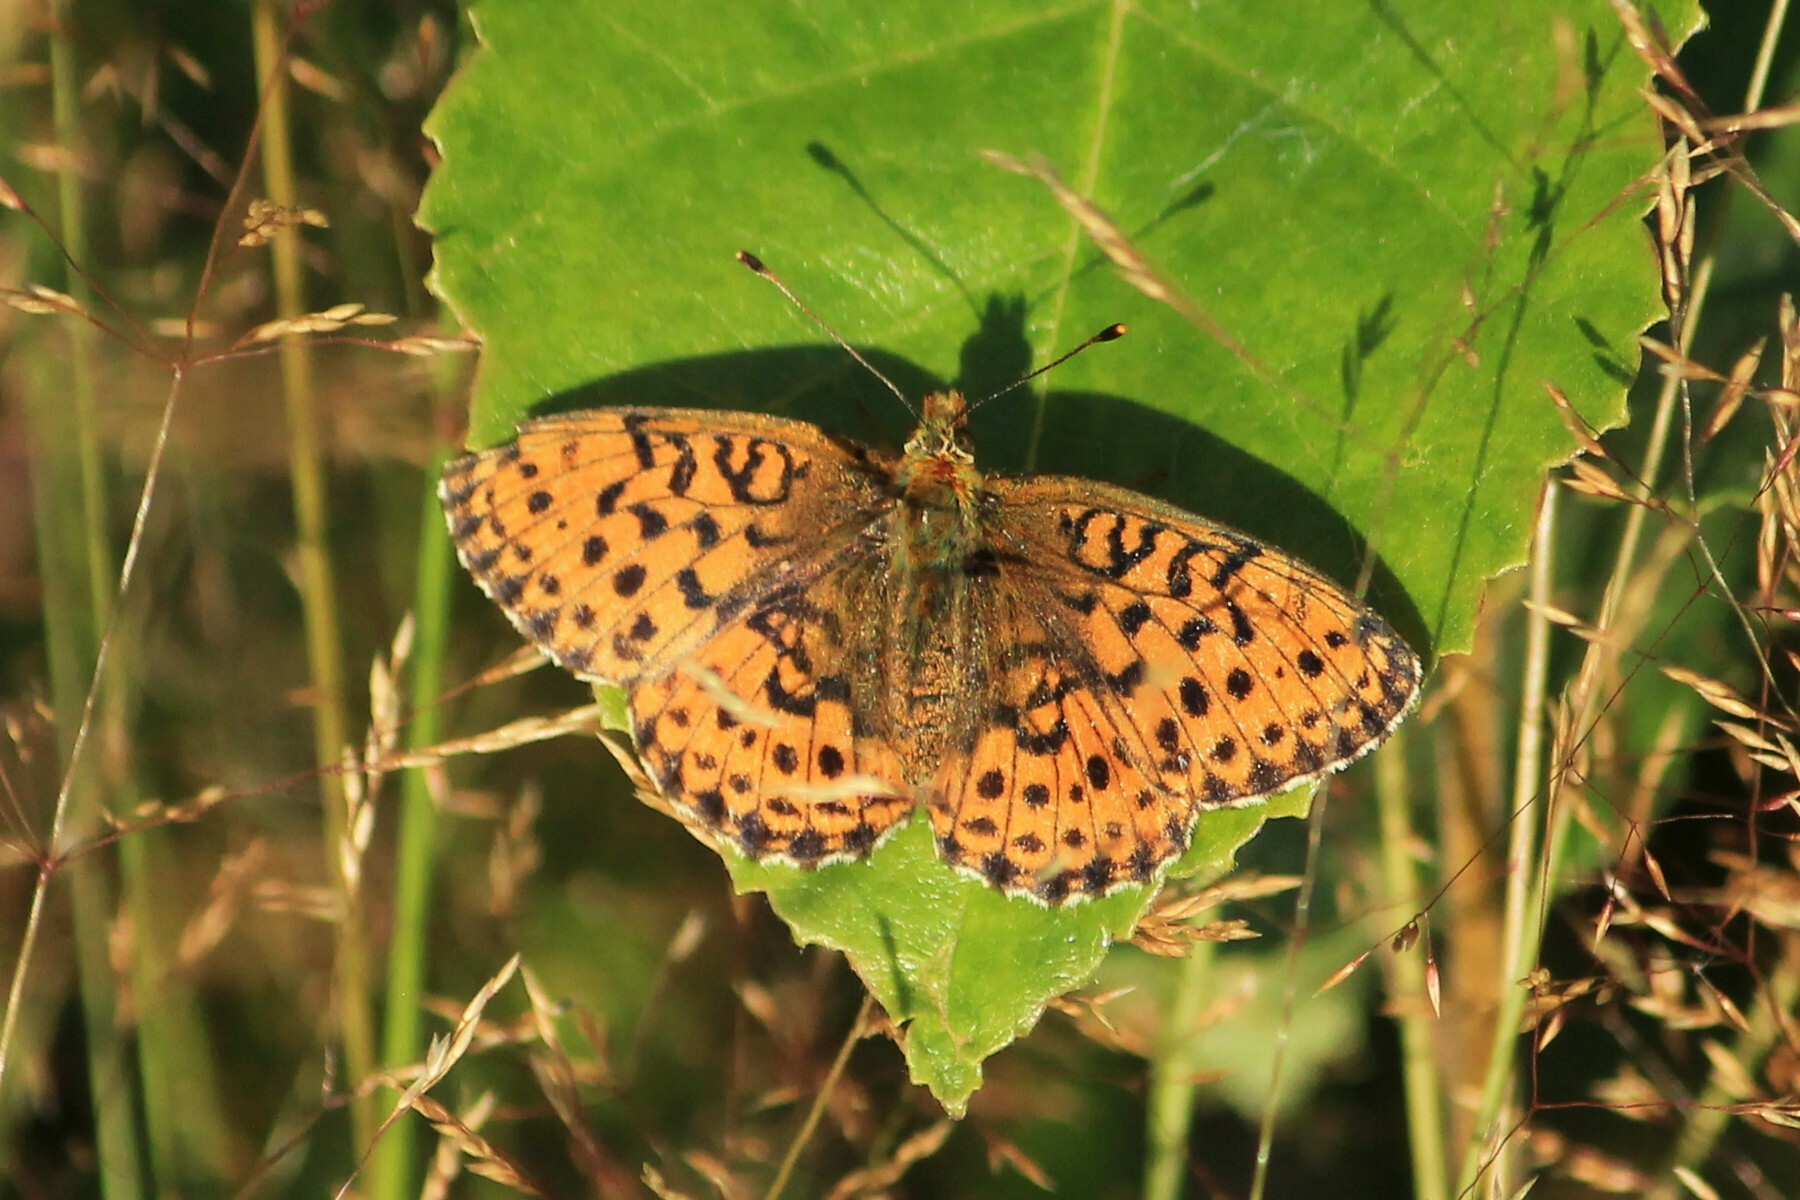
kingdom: Animalia
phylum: Arthropoda
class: Insecta
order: Lepidoptera
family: Nymphalidae
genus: Brenthis
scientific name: Brenthis ino
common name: Lesser marbled fritillary
